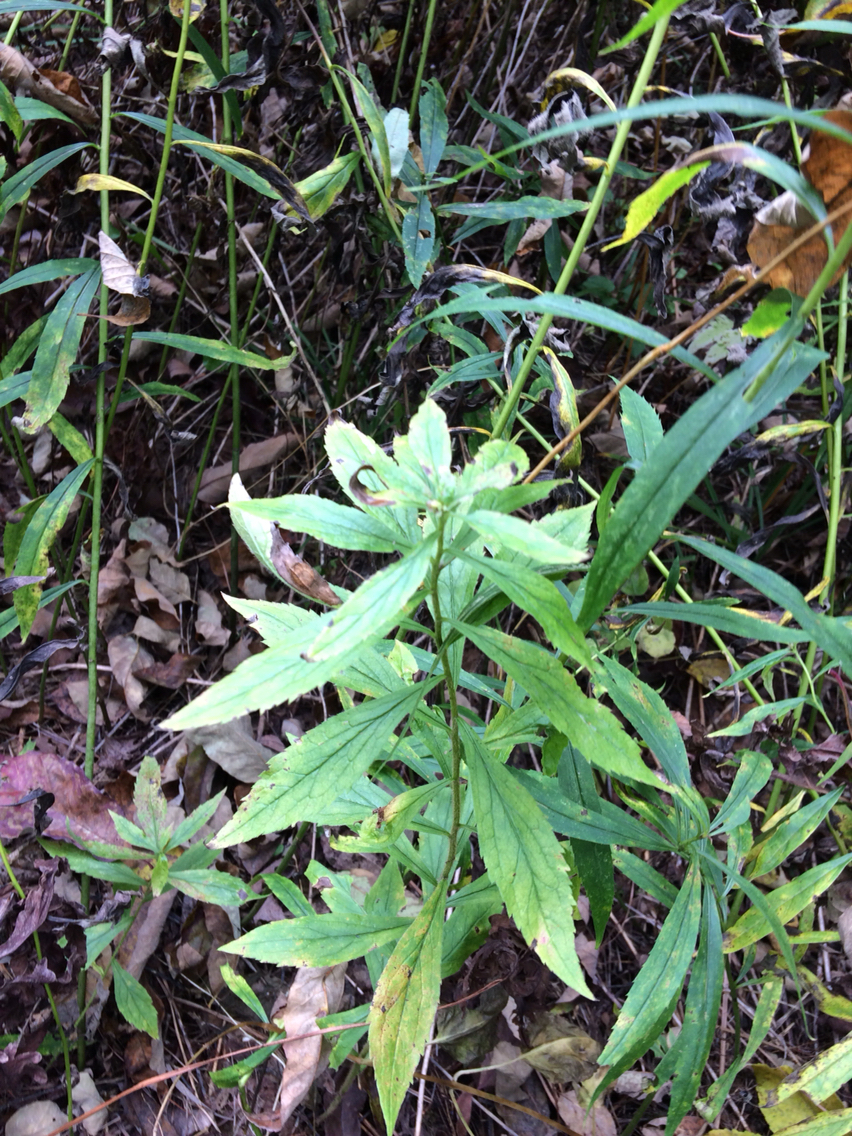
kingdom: Plantae
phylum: Tracheophyta
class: Magnoliopsida
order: Asterales
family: Asteraceae
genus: Solidago
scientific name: Solidago rugosa
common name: Rough-stemmed goldenrod
